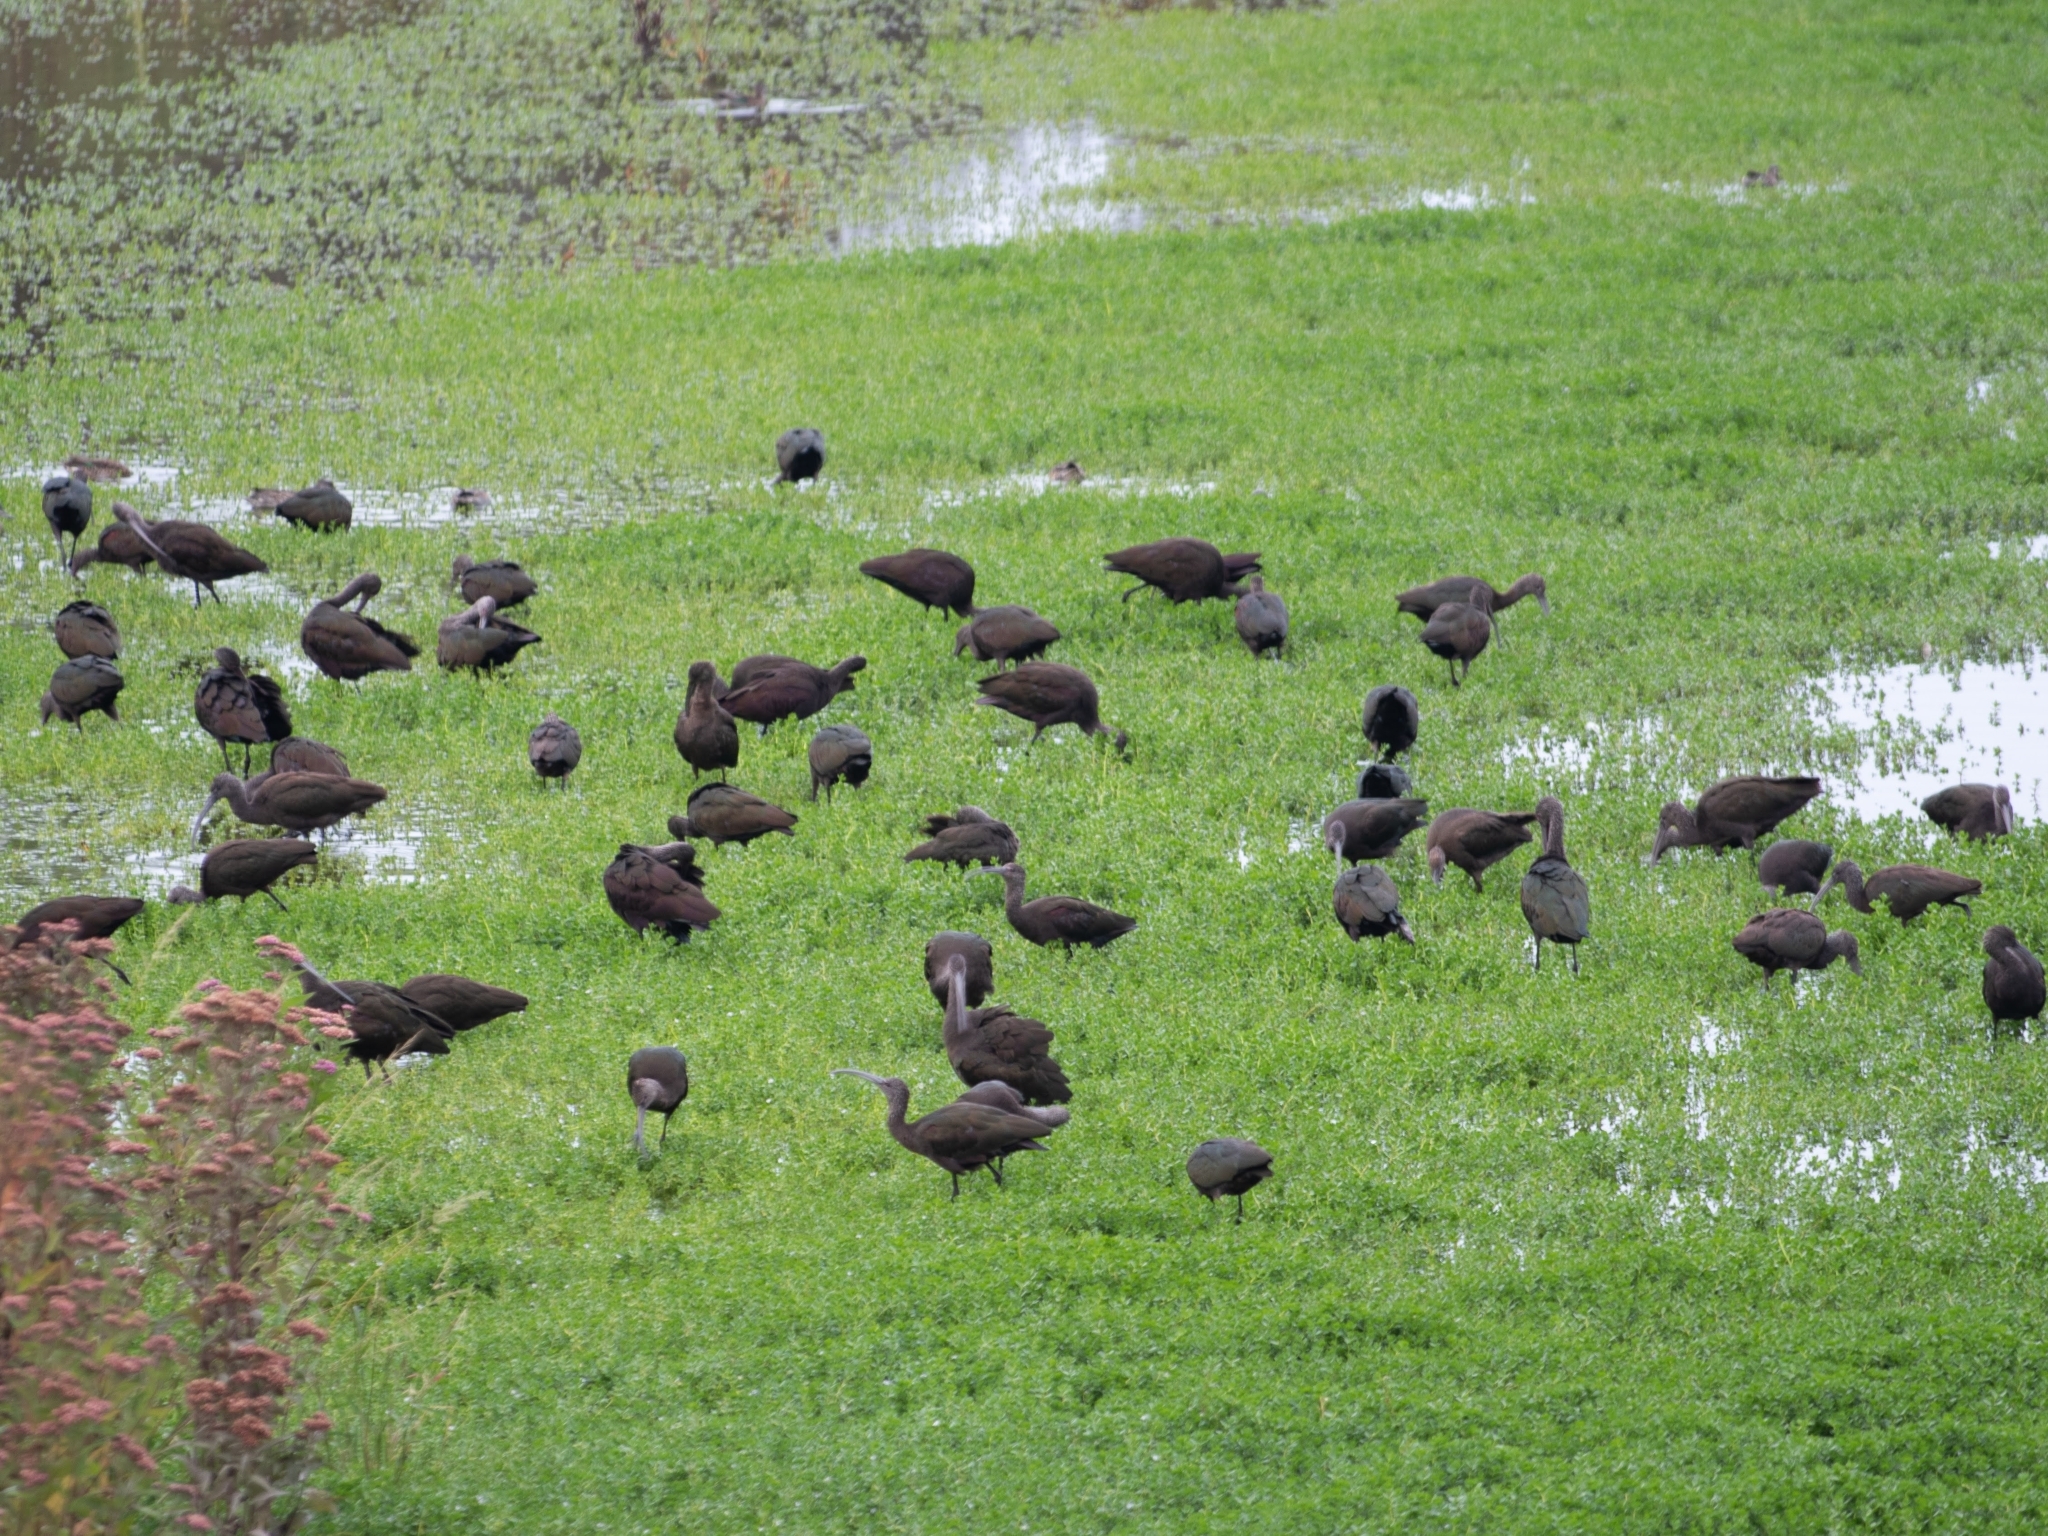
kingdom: Animalia
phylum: Chordata
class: Aves
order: Pelecaniformes
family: Threskiornithidae
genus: Plegadis
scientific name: Plegadis chihi
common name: White-faced ibis
